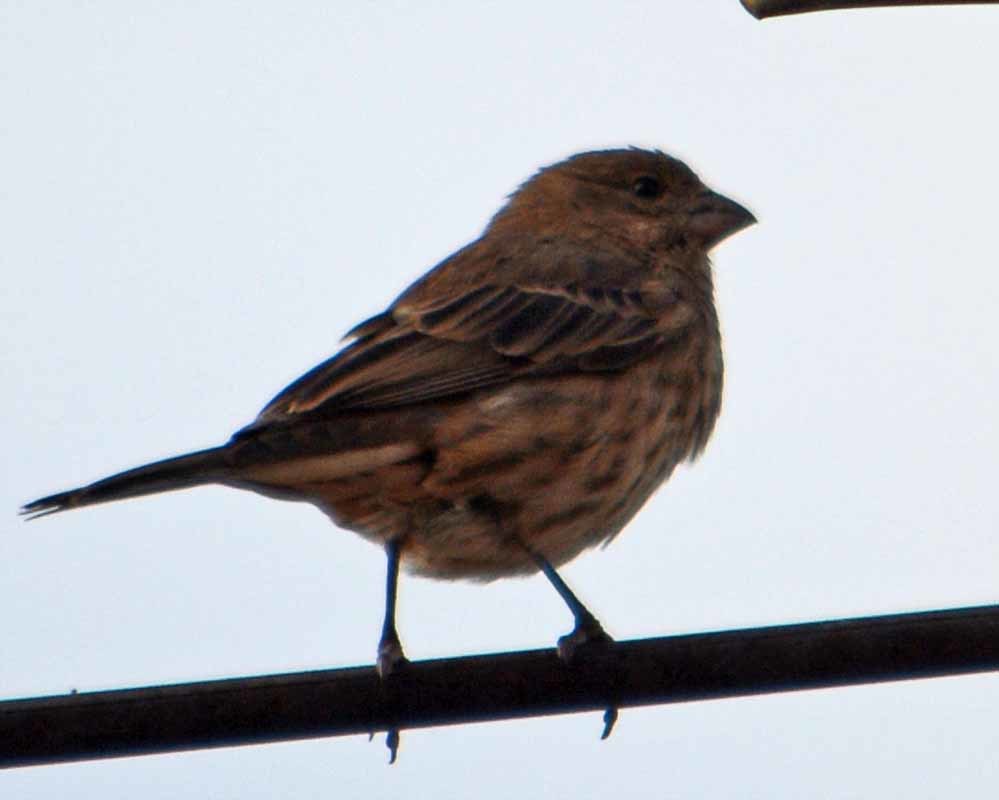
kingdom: Animalia
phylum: Chordata
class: Aves
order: Passeriformes
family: Fringillidae
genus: Haemorhous
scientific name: Haemorhous mexicanus
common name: House finch
